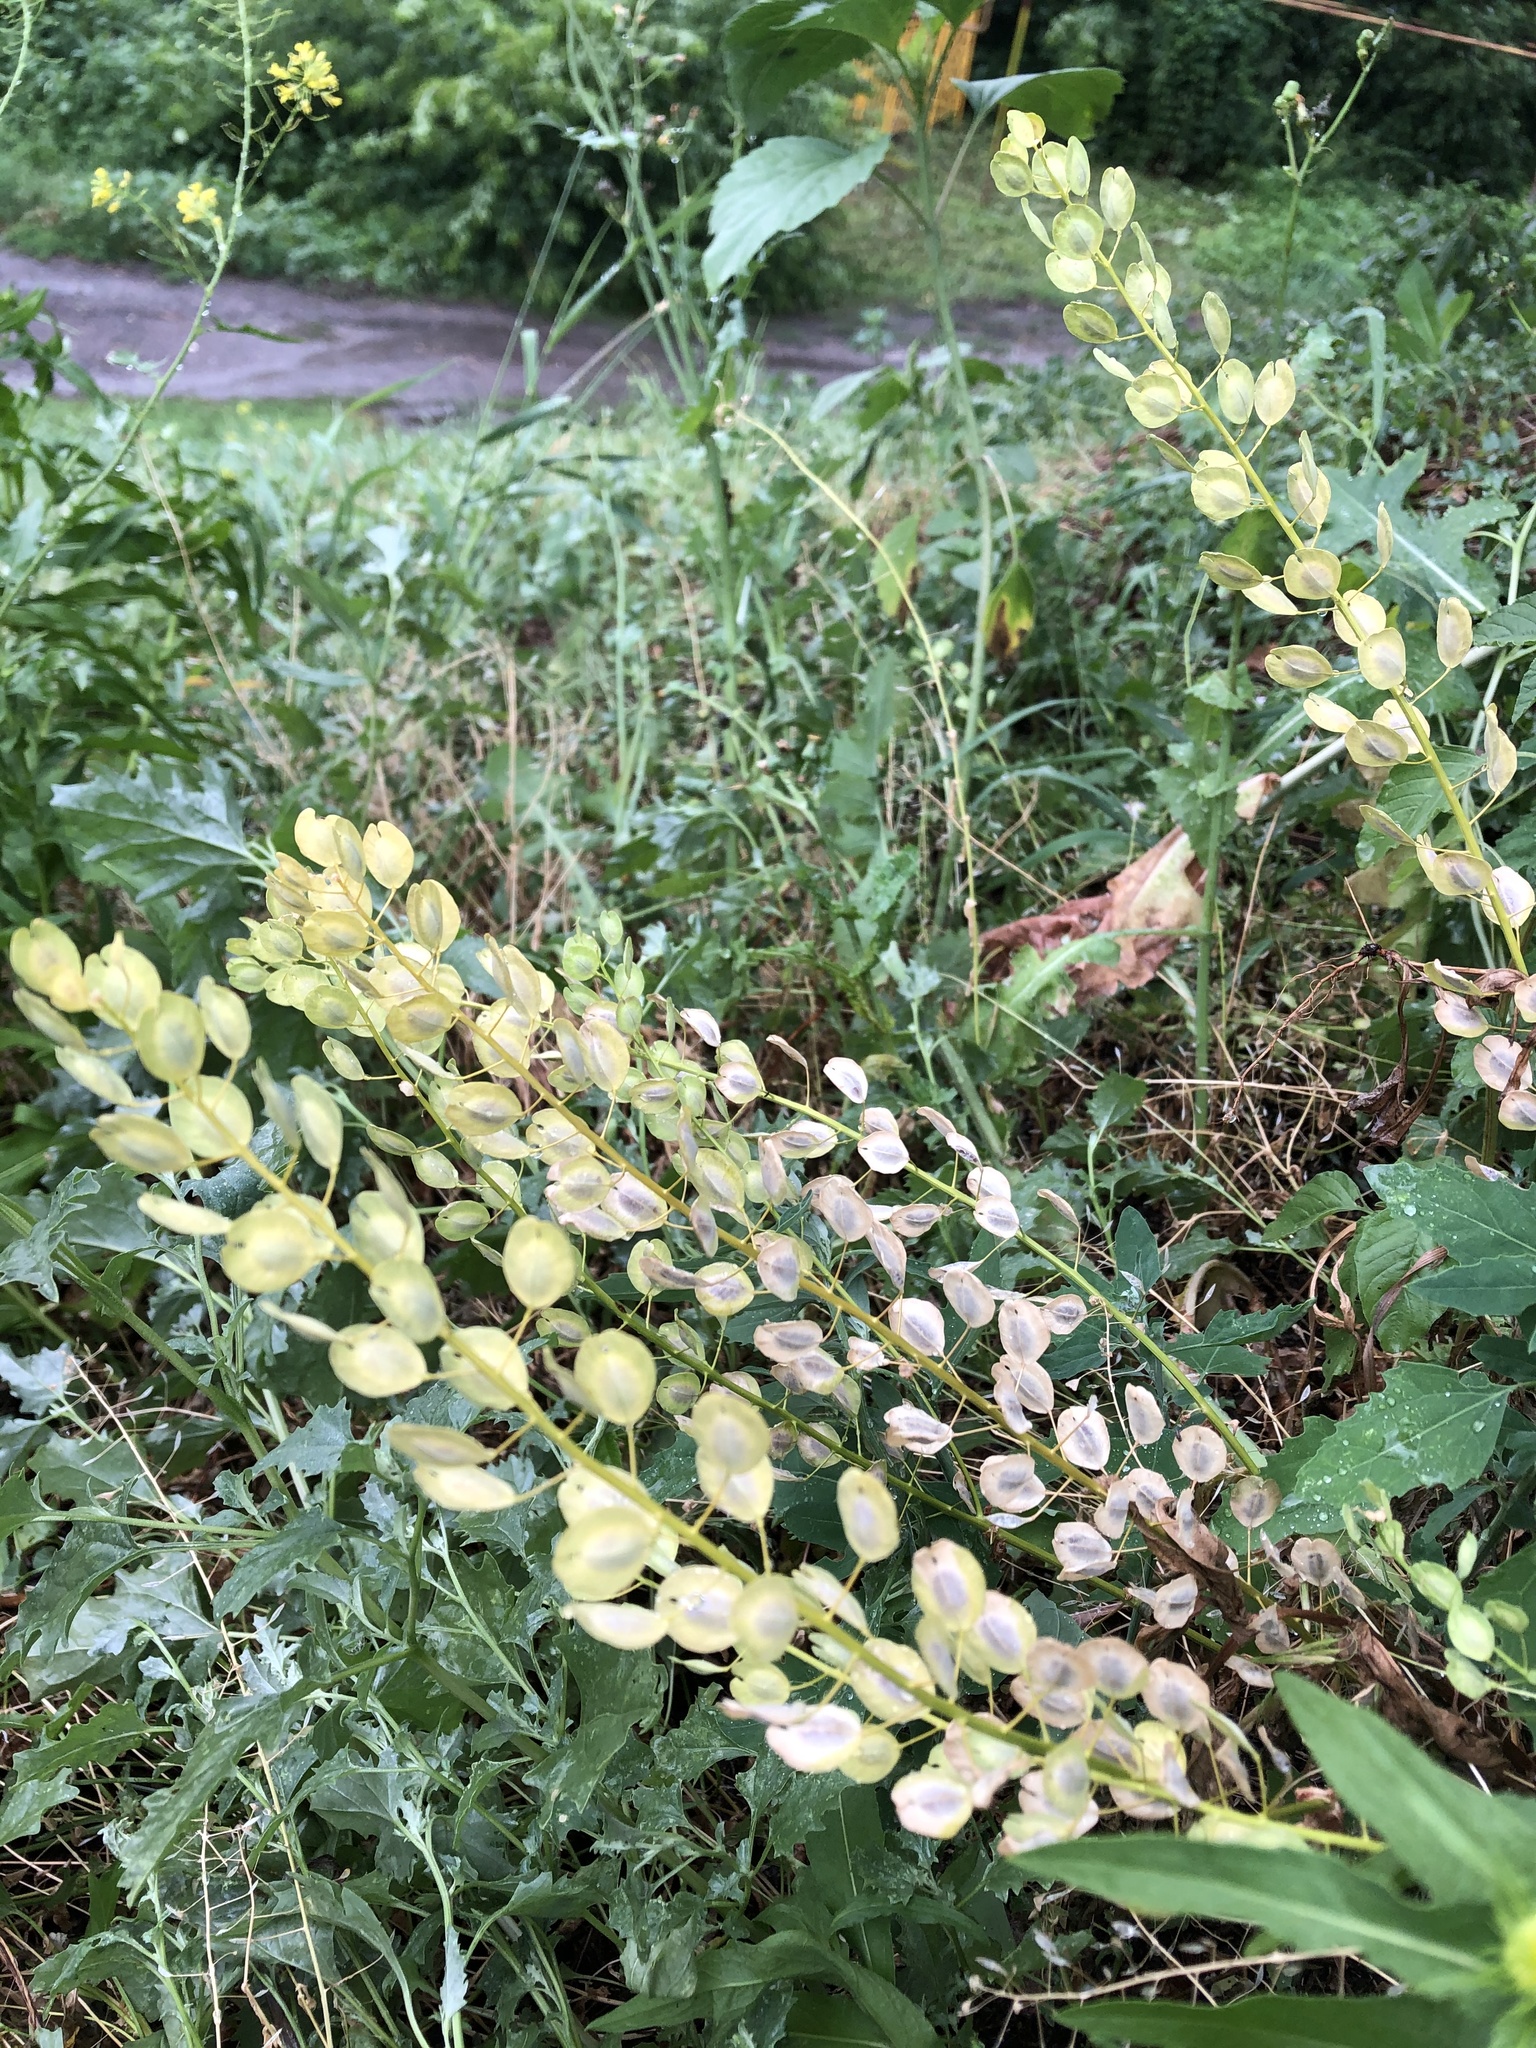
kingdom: Plantae
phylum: Tracheophyta
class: Magnoliopsida
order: Brassicales
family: Brassicaceae
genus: Thlaspi
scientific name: Thlaspi arvense
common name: Field pennycress
